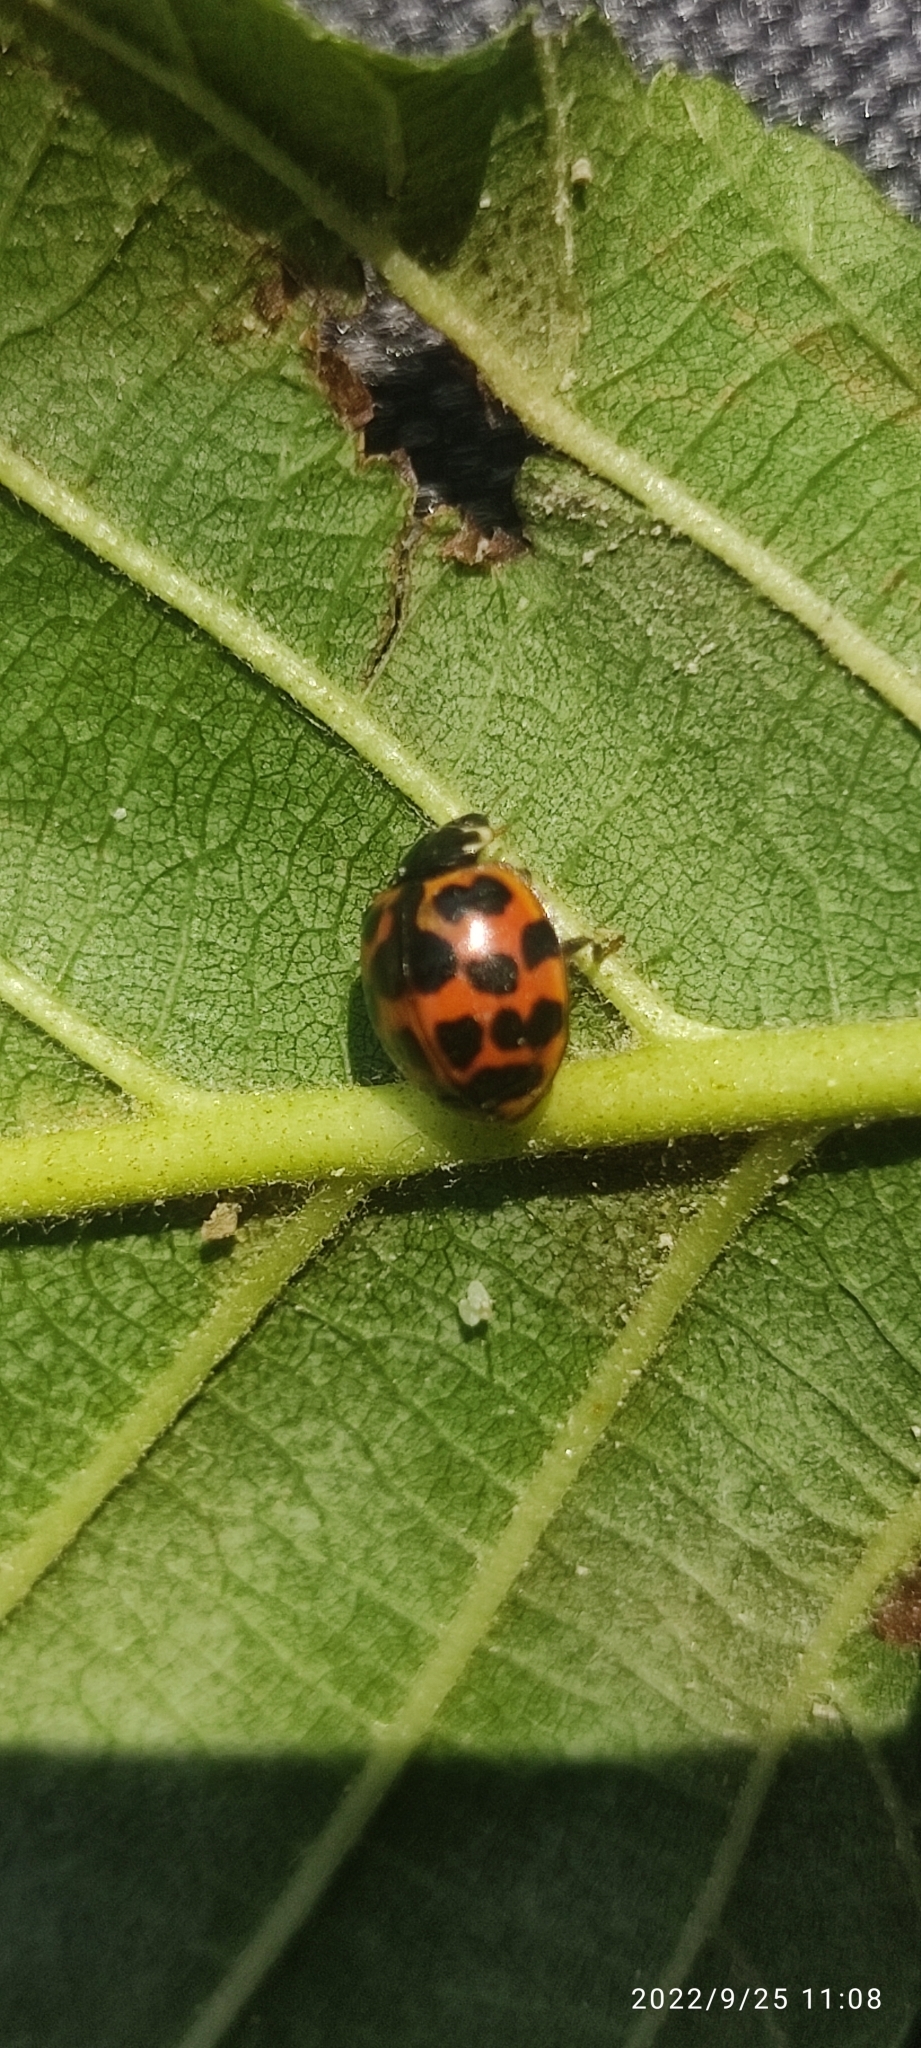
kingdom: Animalia
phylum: Arthropoda
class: Insecta
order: Coleoptera
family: Coccinellidae
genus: Harmonia
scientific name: Harmonia axyridis
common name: Harlequin ladybird
